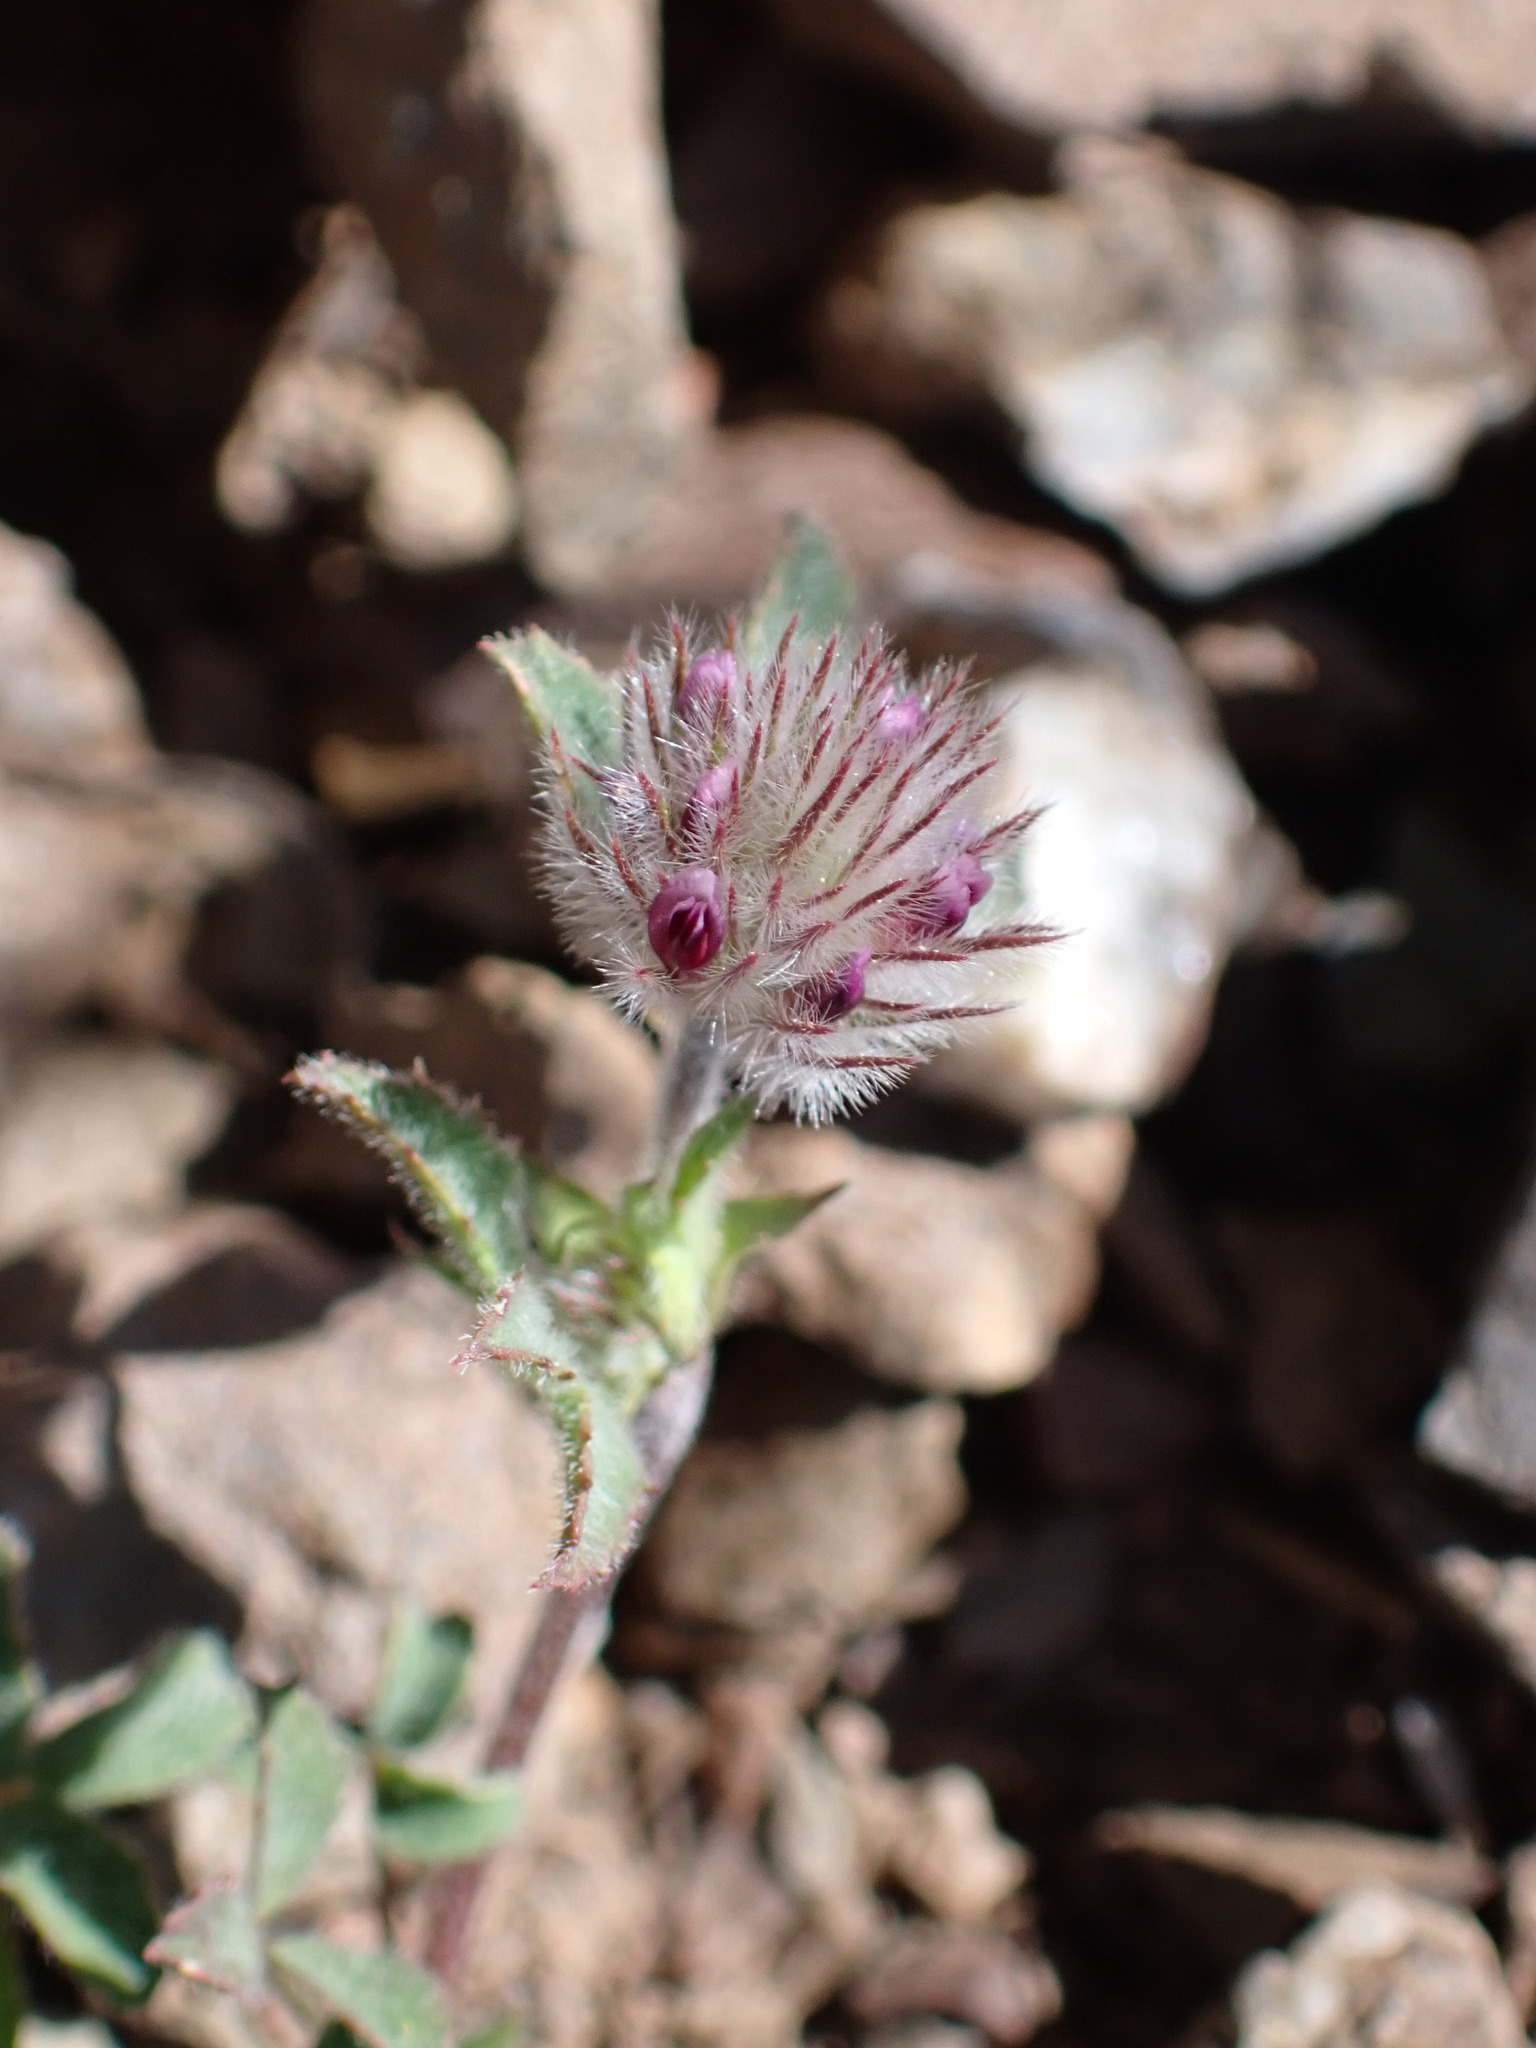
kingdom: Plantae
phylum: Tracheophyta
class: Magnoliopsida
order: Fabales
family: Fabaceae
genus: Trifolium
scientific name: Trifolium albopurpureum
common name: Rancheria clover
